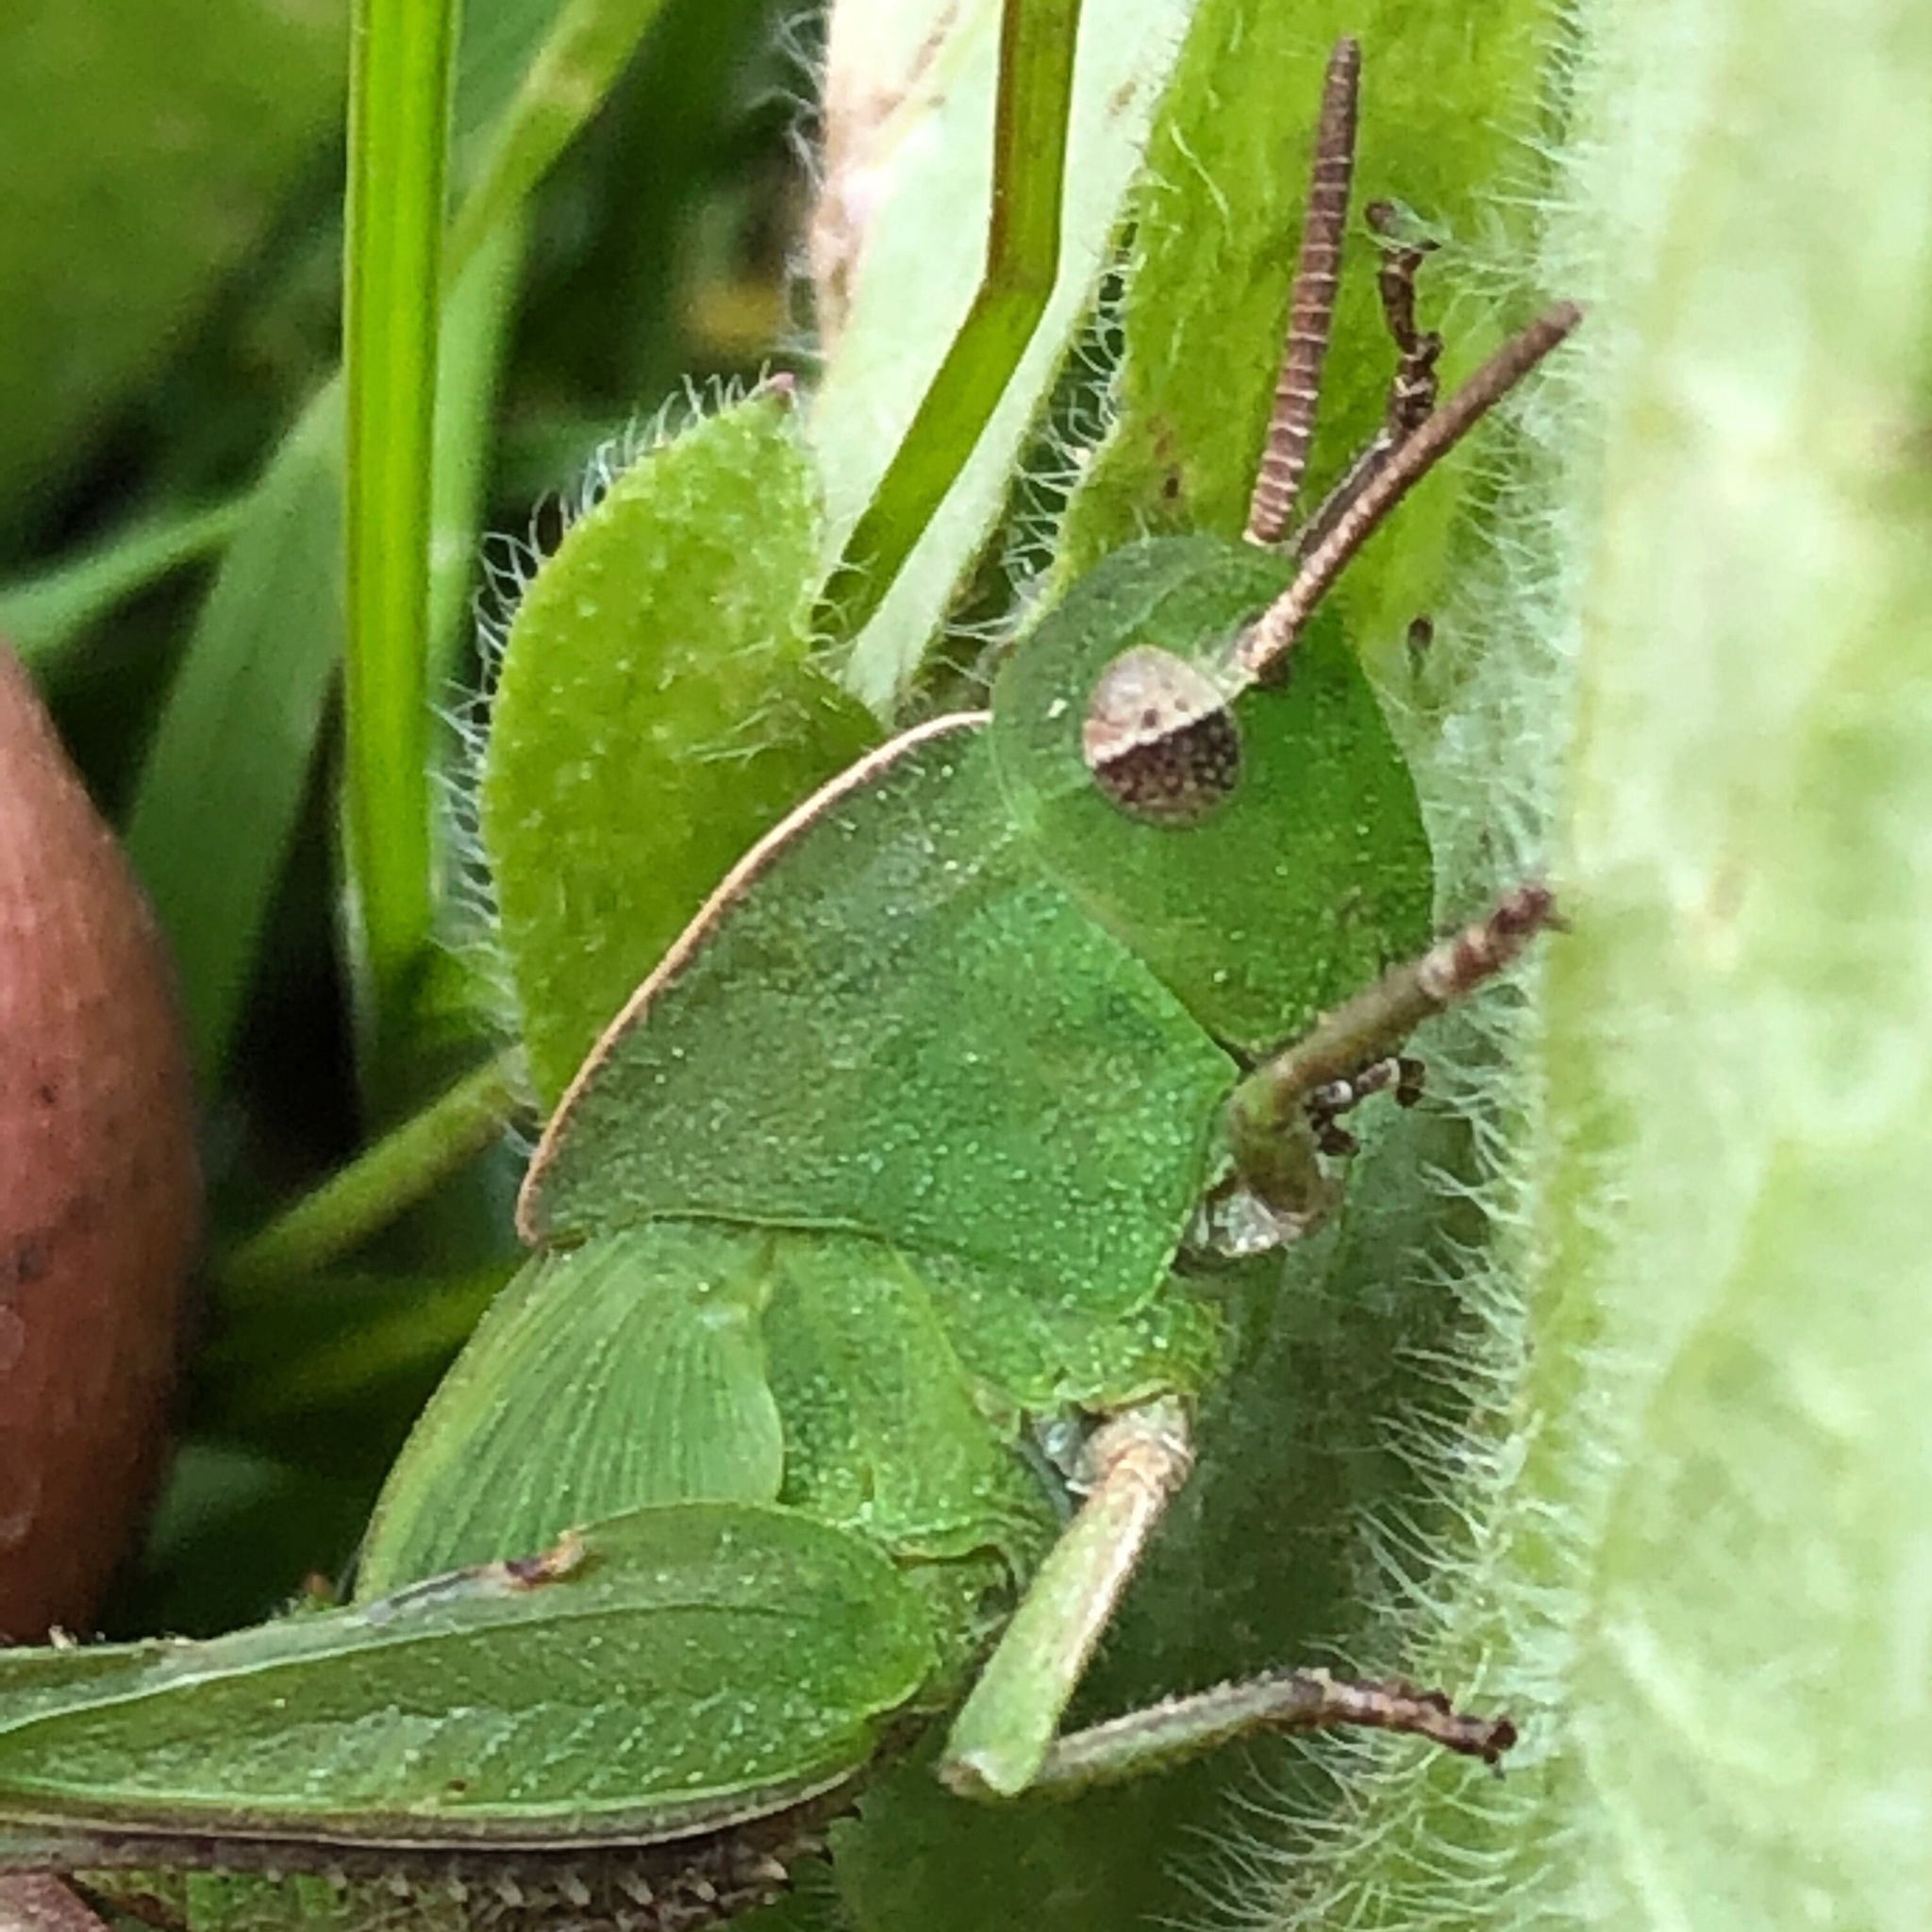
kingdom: Animalia
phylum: Arthropoda
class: Insecta
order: Orthoptera
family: Acrididae
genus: Chortophaga
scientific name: Chortophaga viridifasciata
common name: Green-striped grasshopper
